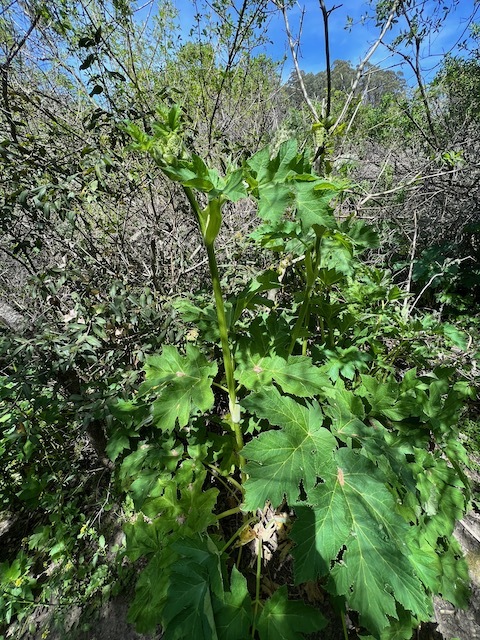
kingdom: Plantae
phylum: Tracheophyta
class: Magnoliopsida
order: Apiales
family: Apiaceae
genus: Heracleum
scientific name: Heracleum maximum
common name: American cow parsnip
